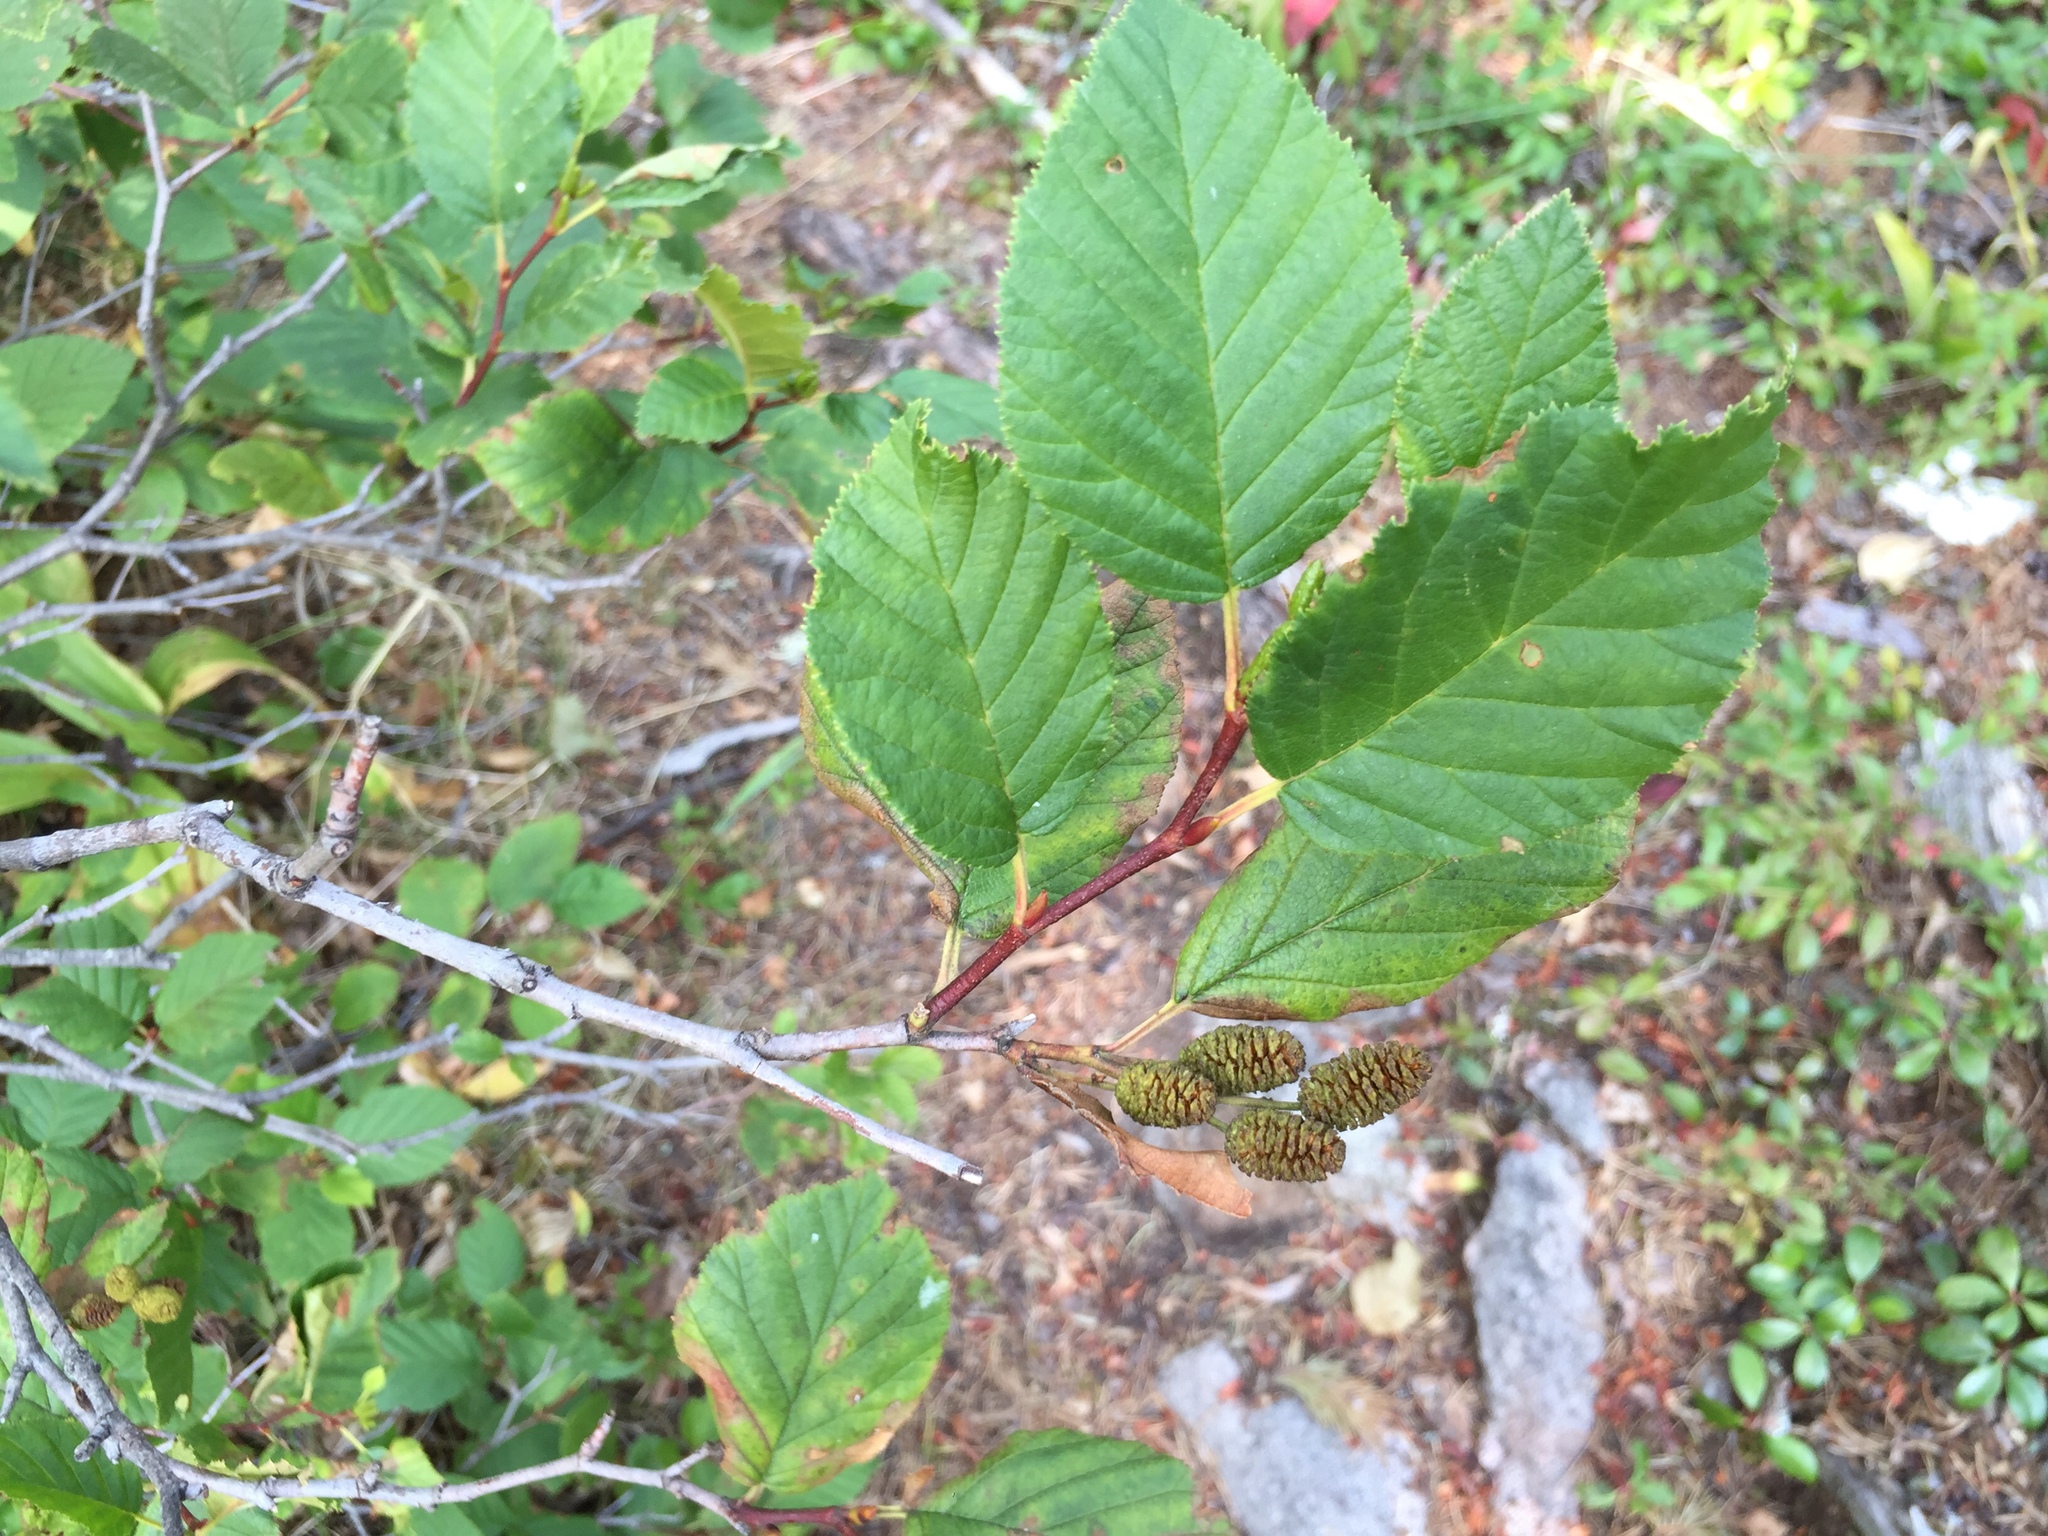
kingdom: Plantae
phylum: Tracheophyta
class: Magnoliopsida
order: Fagales
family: Betulaceae
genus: Alnus
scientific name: Alnus alnobetula
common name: Green alder
